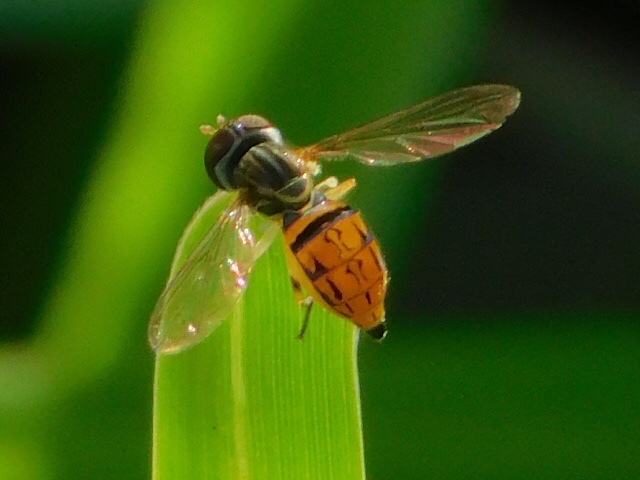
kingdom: Animalia
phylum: Arthropoda
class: Insecta
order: Diptera
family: Syrphidae
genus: Toxomerus
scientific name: Toxomerus boscii
